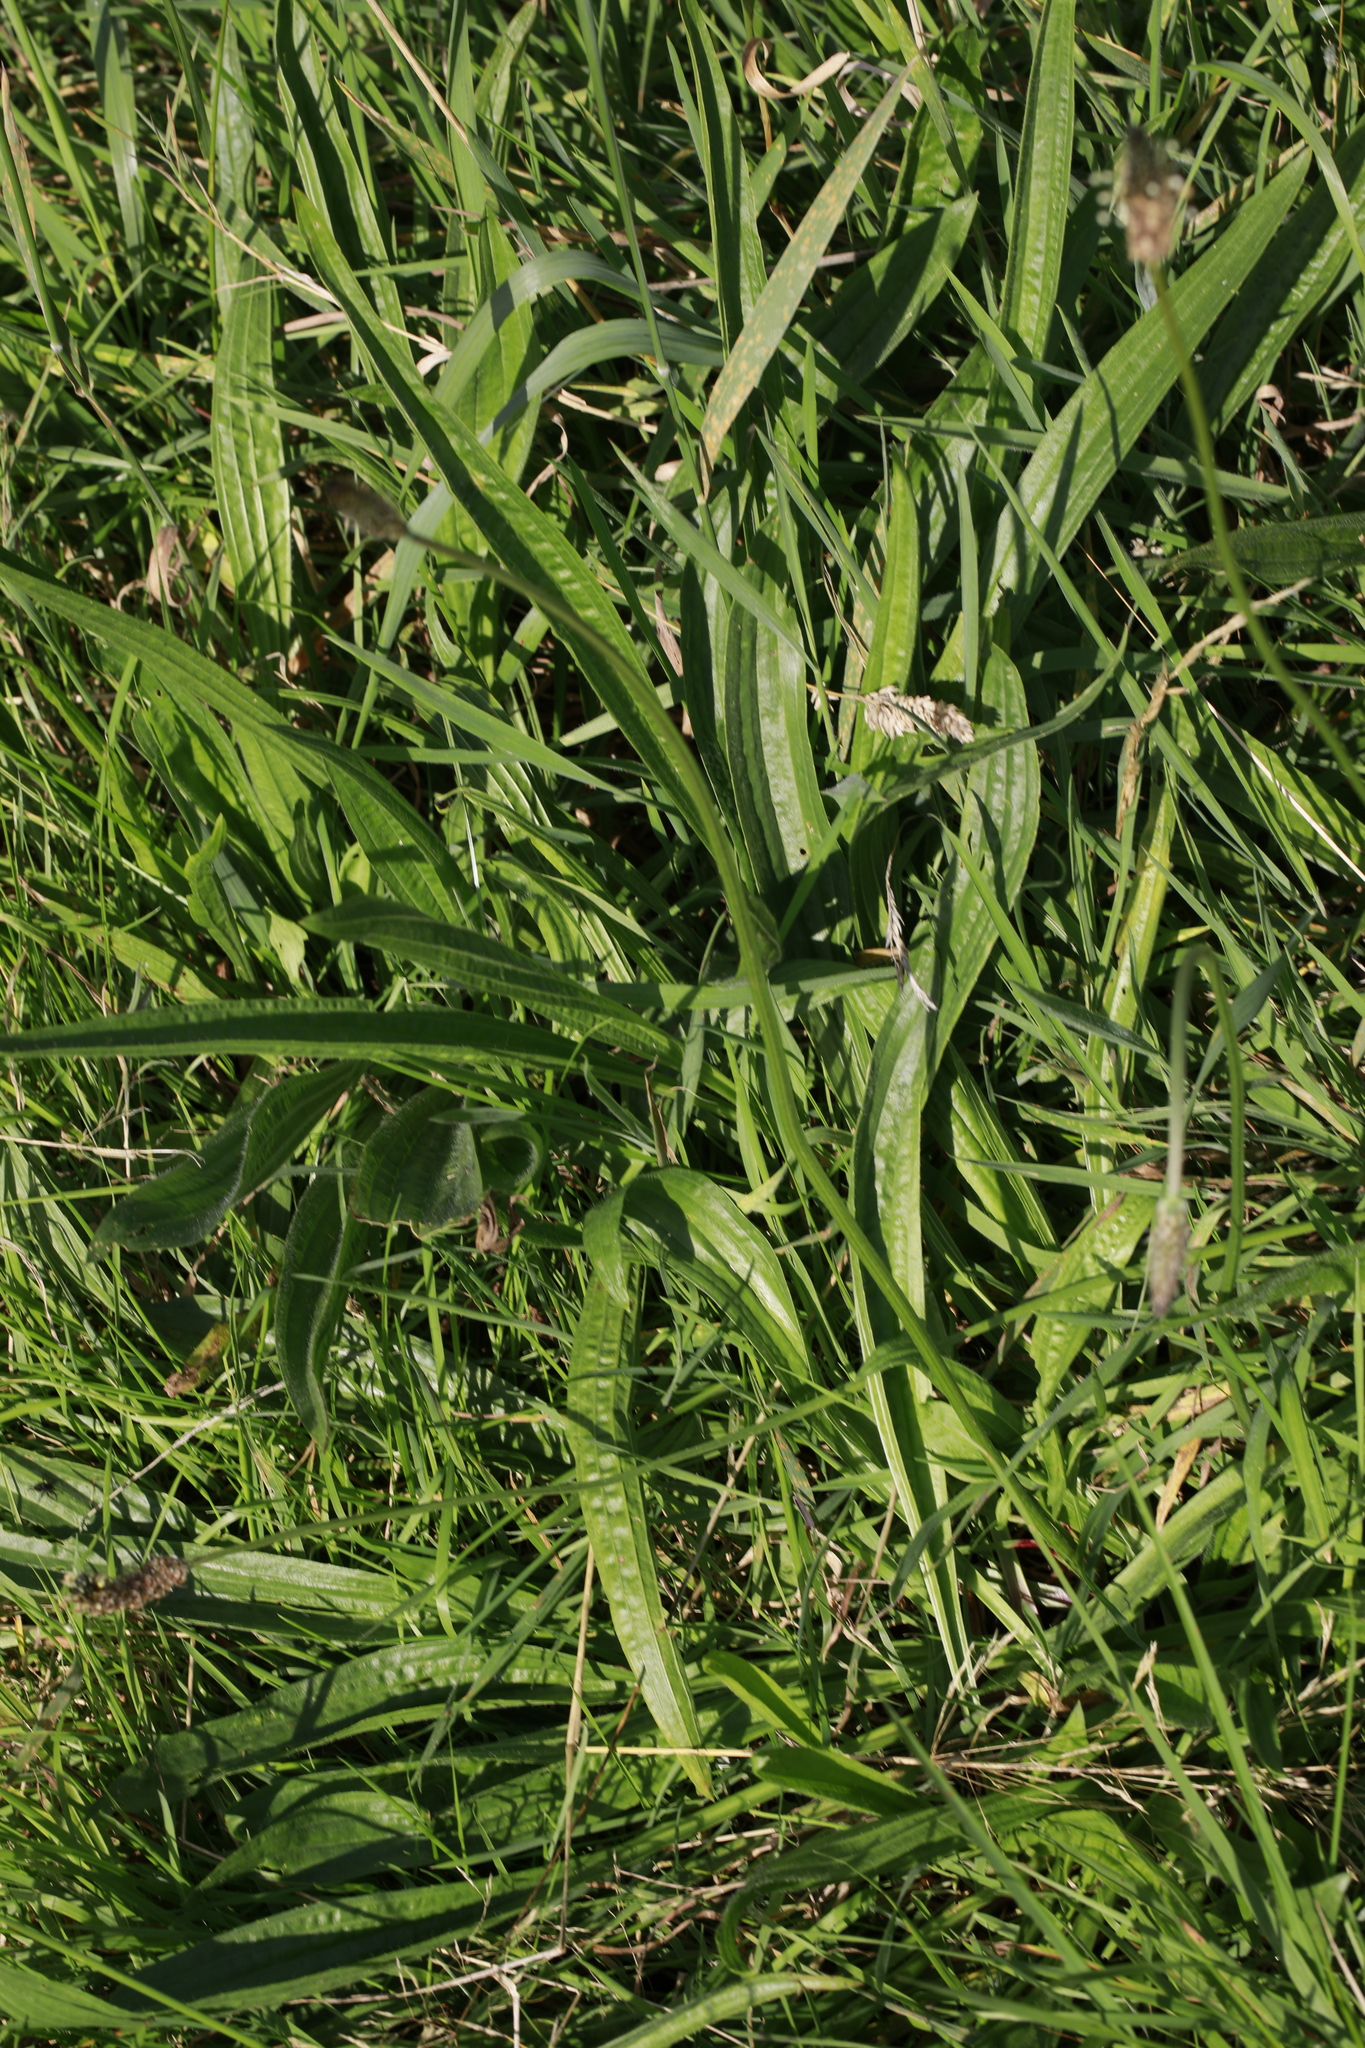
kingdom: Plantae
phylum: Tracheophyta
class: Magnoliopsida
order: Lamiales
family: Plantaginaceae
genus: Plantago
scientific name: Plantago lanceolata
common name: Ribwort plantain
